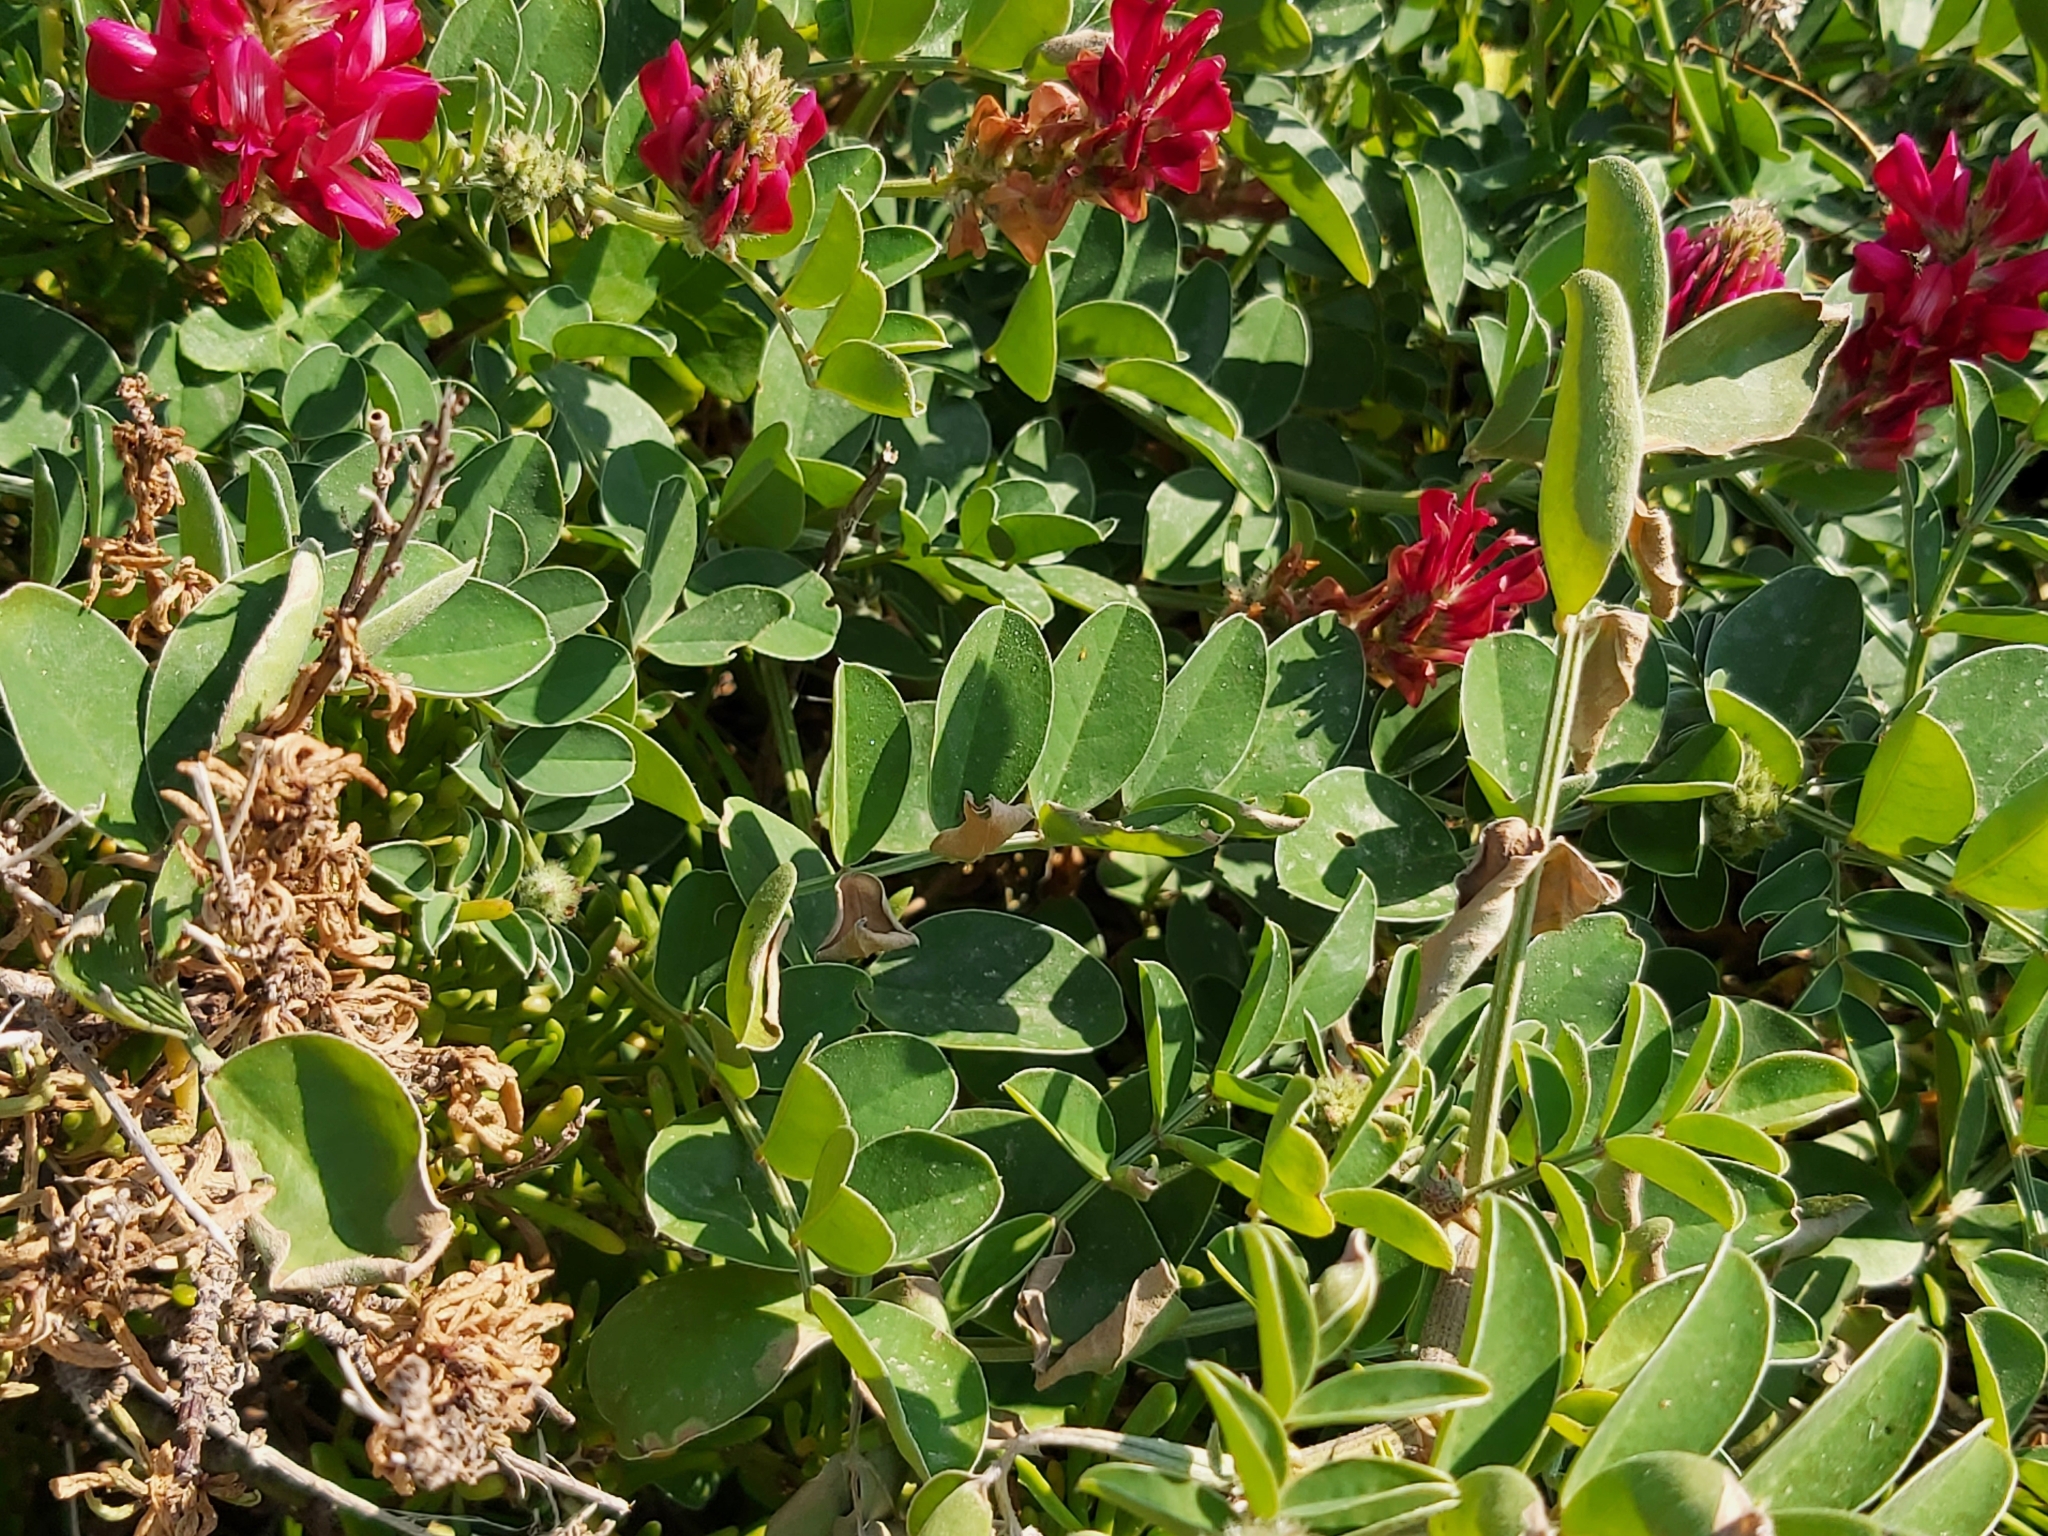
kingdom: Plantae
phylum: Tracheophyta
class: Magnoliopsida
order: Fabales
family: Fabaceae
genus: Sulla
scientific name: Sulla coronaria
